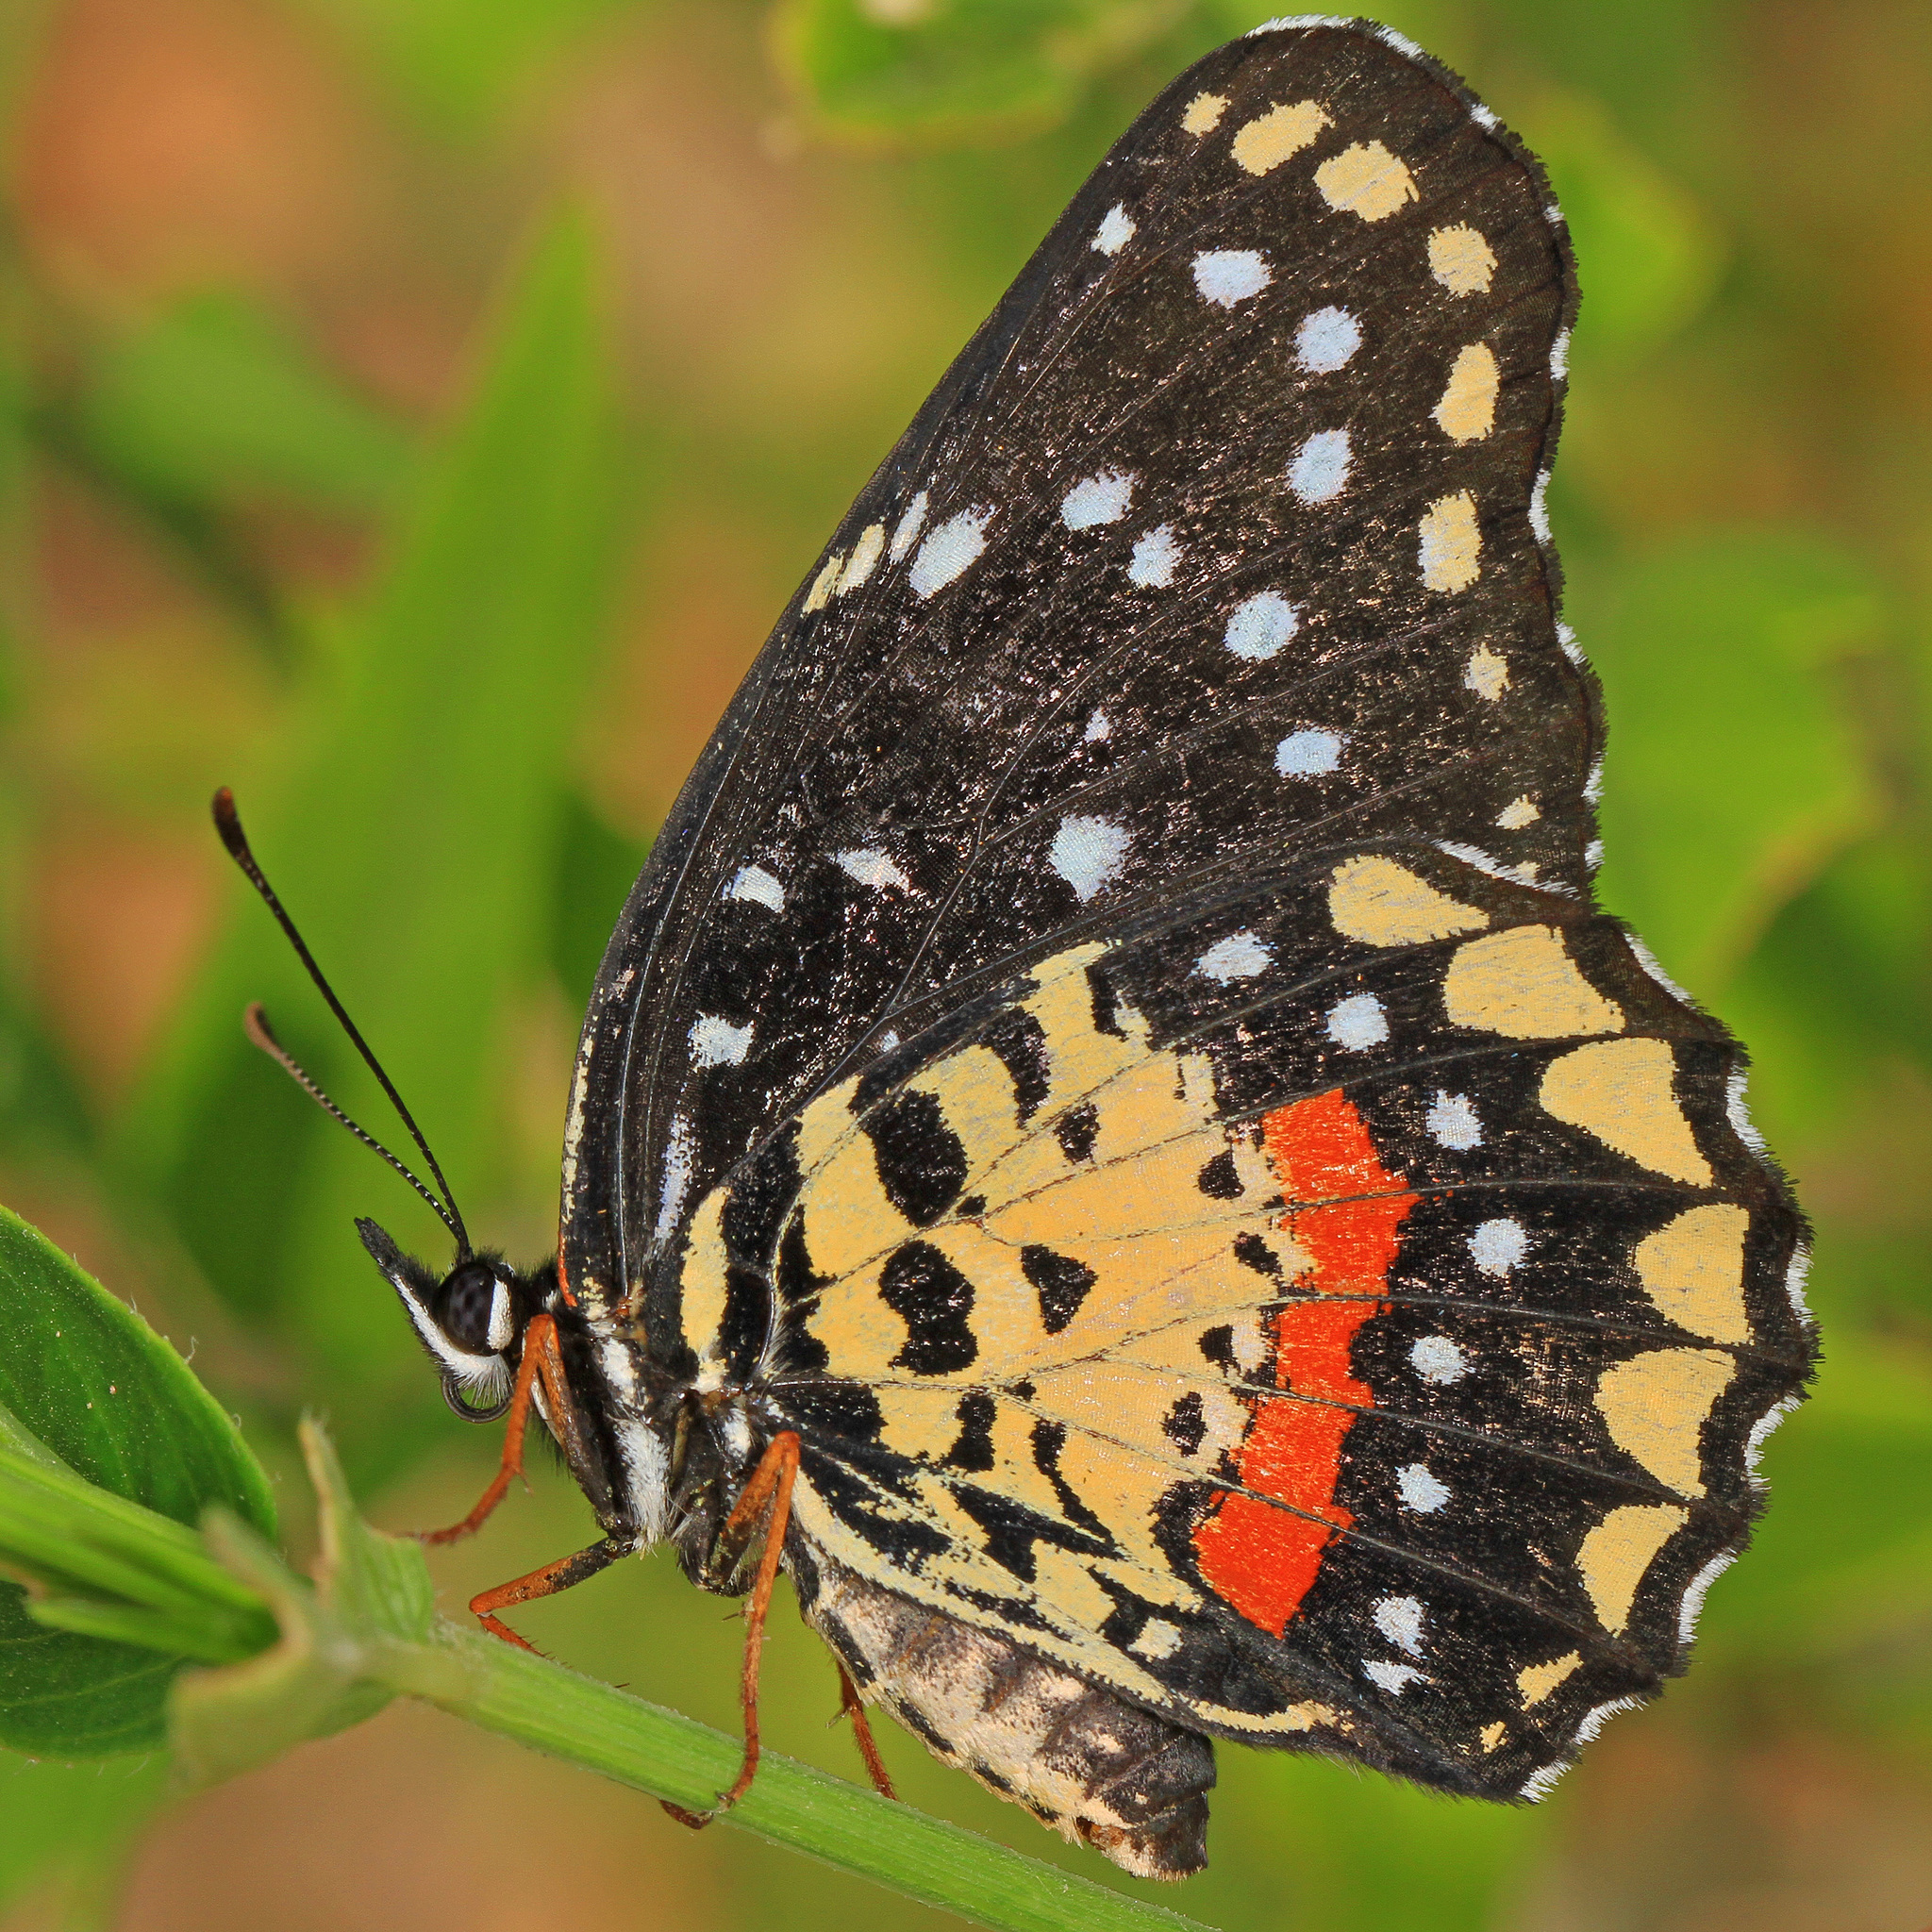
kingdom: Animalia
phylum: Arthropoda
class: Insecta
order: Lepidoptera
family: Nymphalidae
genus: Chlosyne
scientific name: Chlosyne janais
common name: Crimson patch
